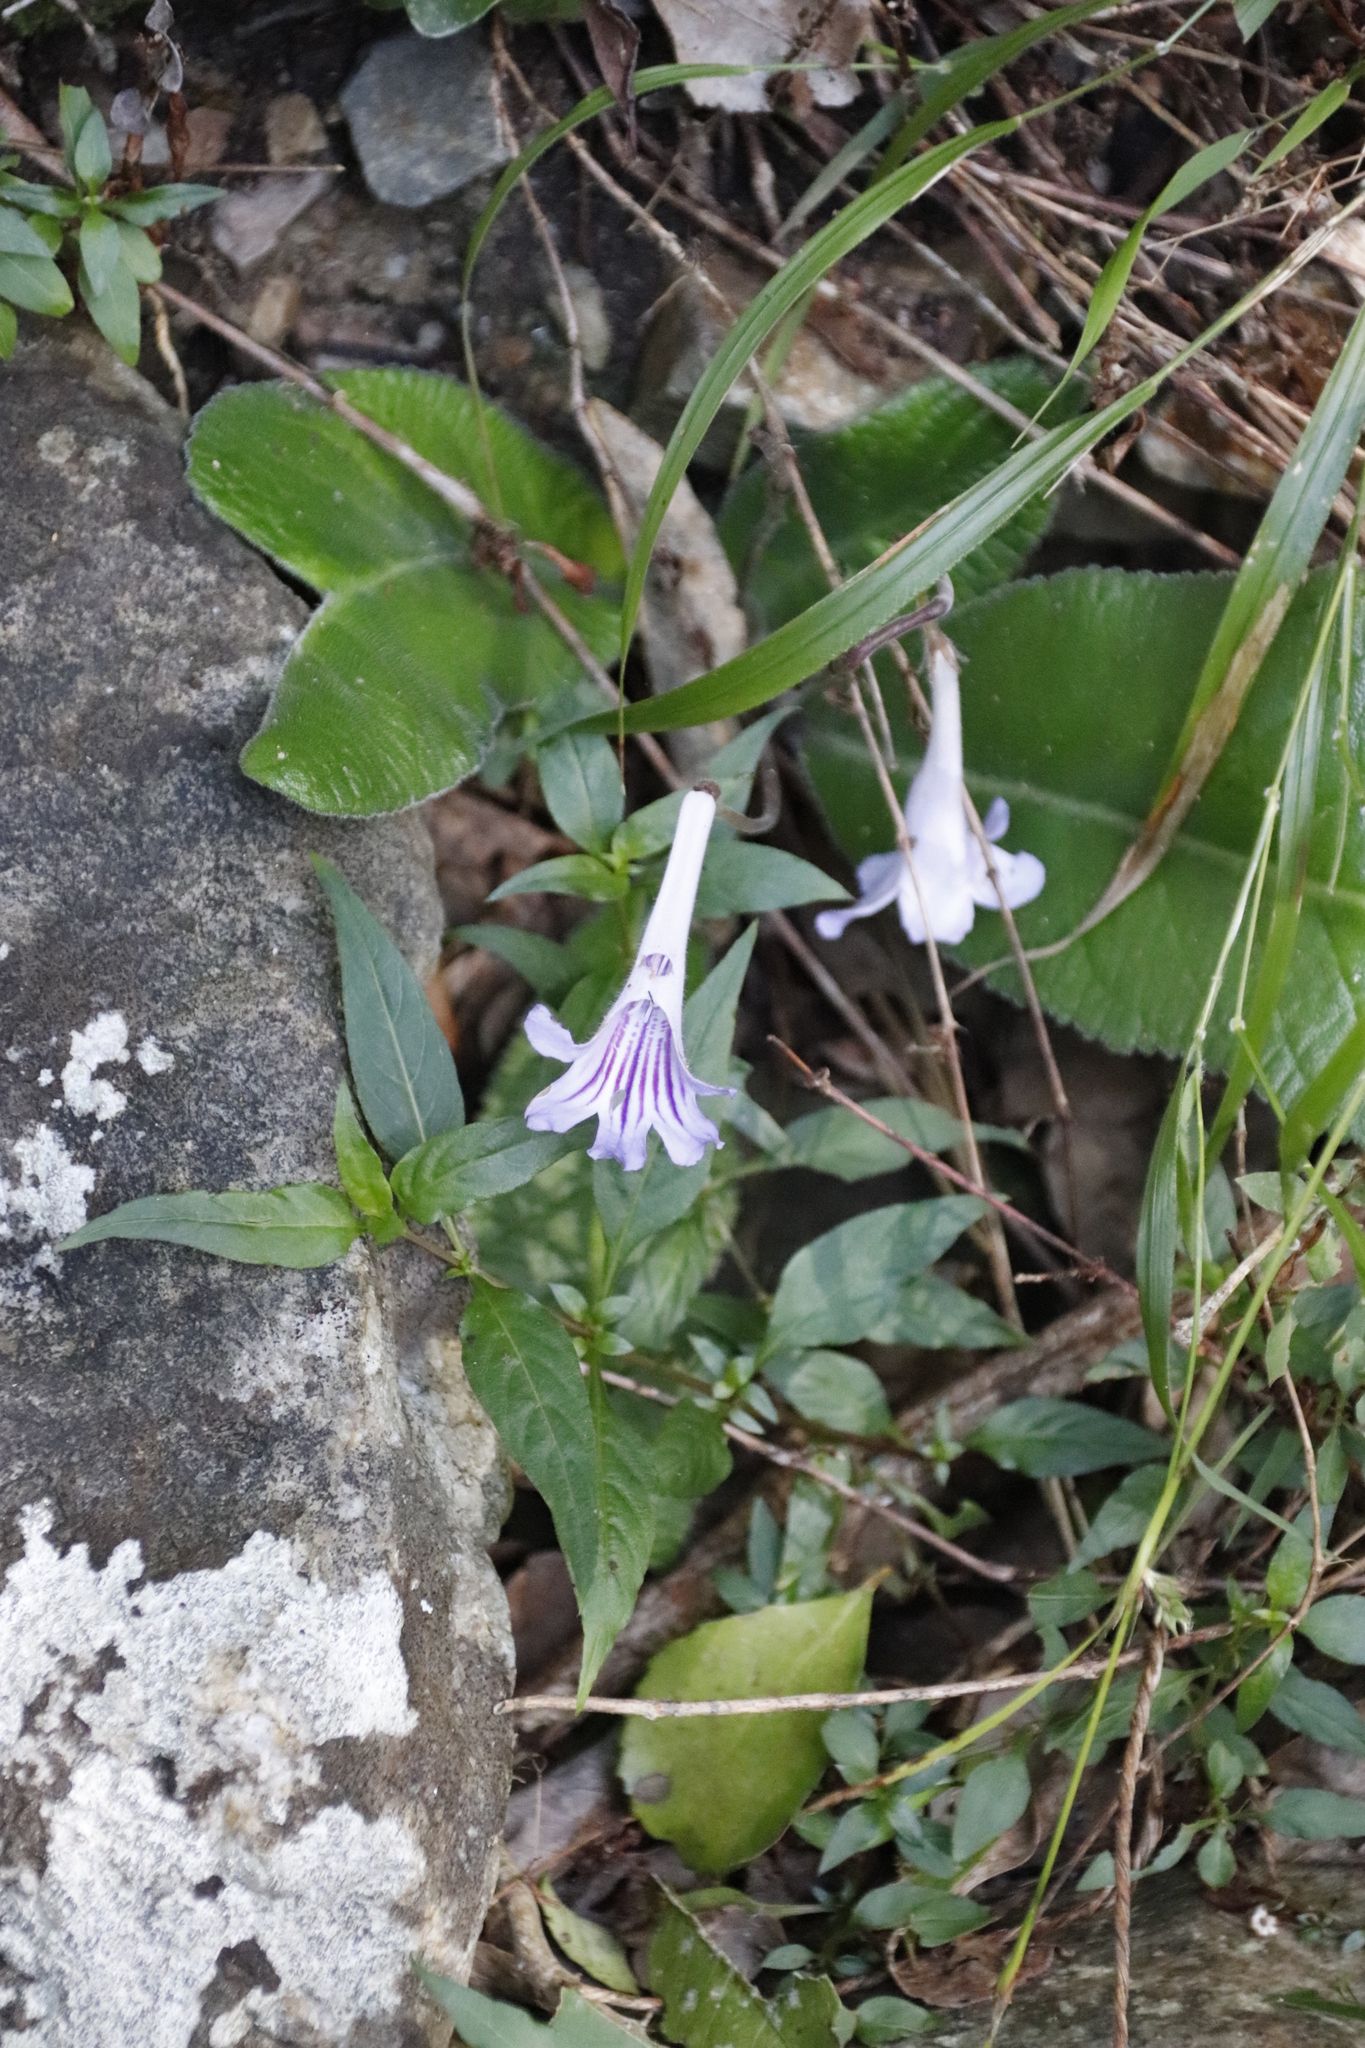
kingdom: Plantae
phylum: Tracheophyta
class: Magnoliopsida
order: Lamiales
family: Gesneriaceae
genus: Streptocarpus
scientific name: Streptocarpus rexii
